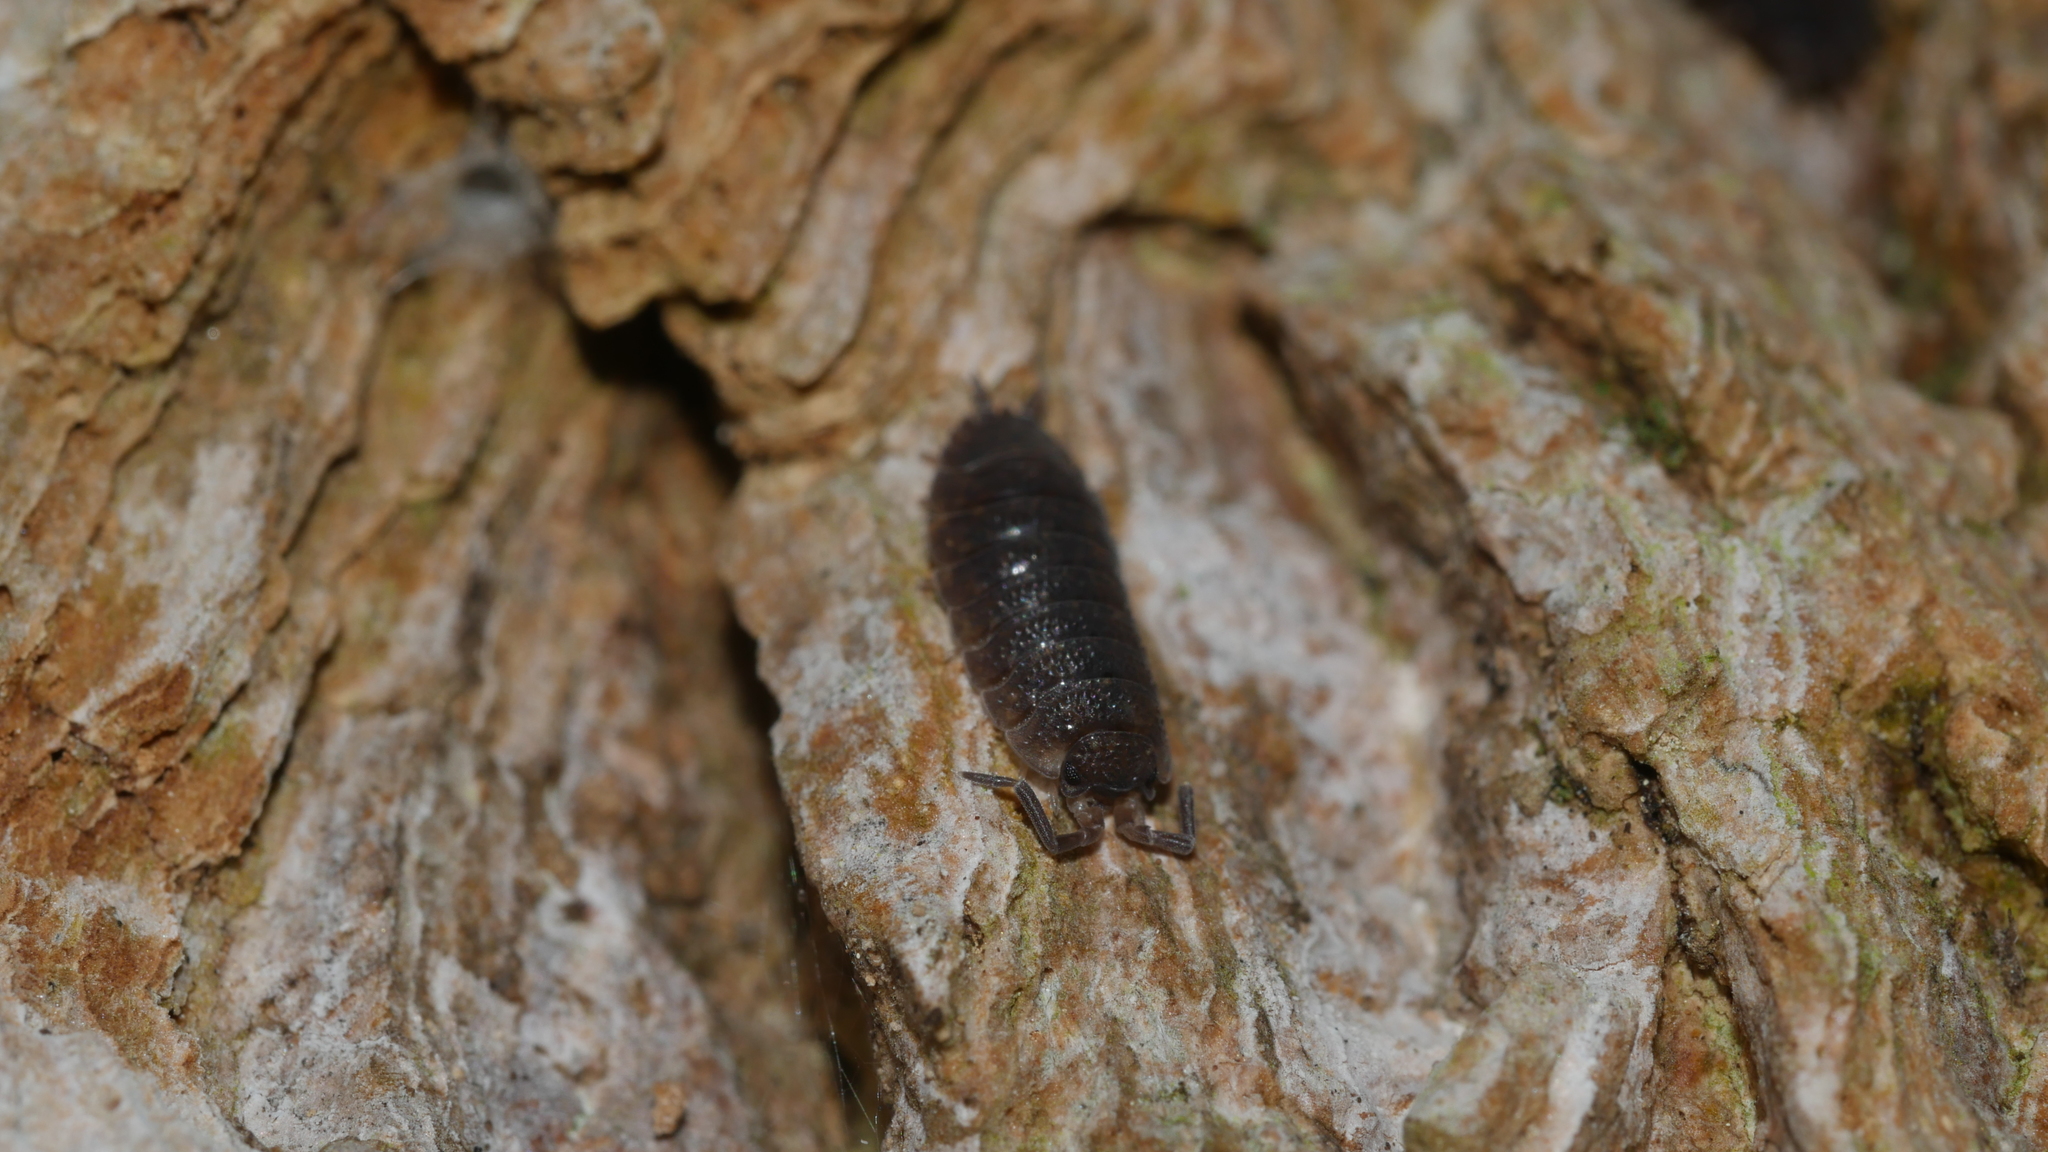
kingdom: Animalia
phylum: Arthropoda
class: Malacostraca
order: Isopoda
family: Porcellionidae
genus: Porcellio
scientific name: Porcellio scaber
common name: Common rough woodlouse
